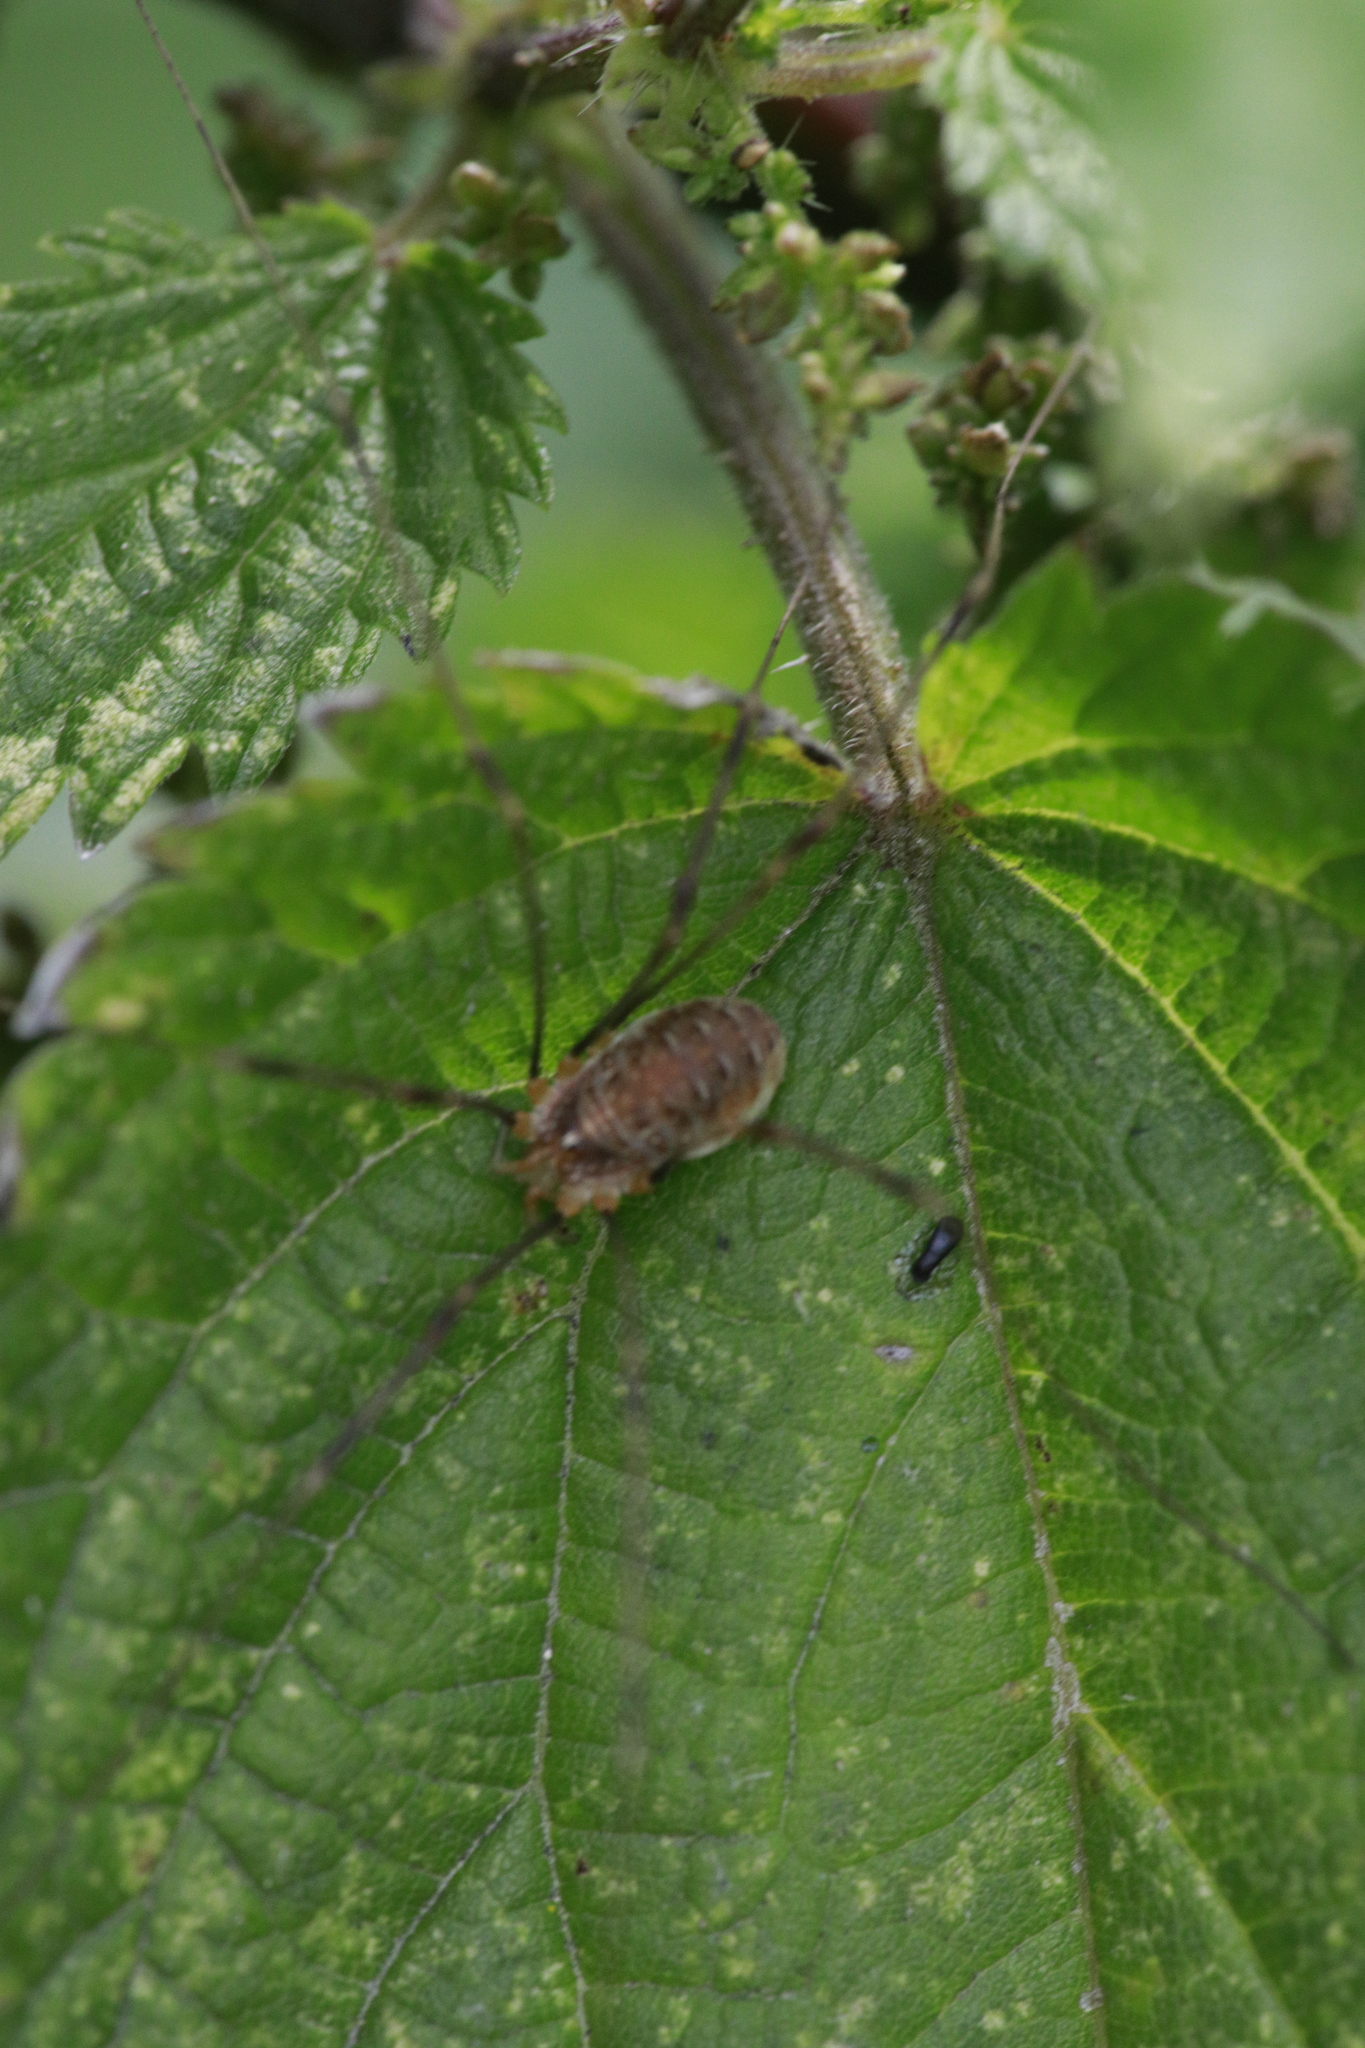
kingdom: Animalia
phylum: Arthropoda
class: Arachnida
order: Opiliones
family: Phalangiidae
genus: Opilio
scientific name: Opilio canestrinii
